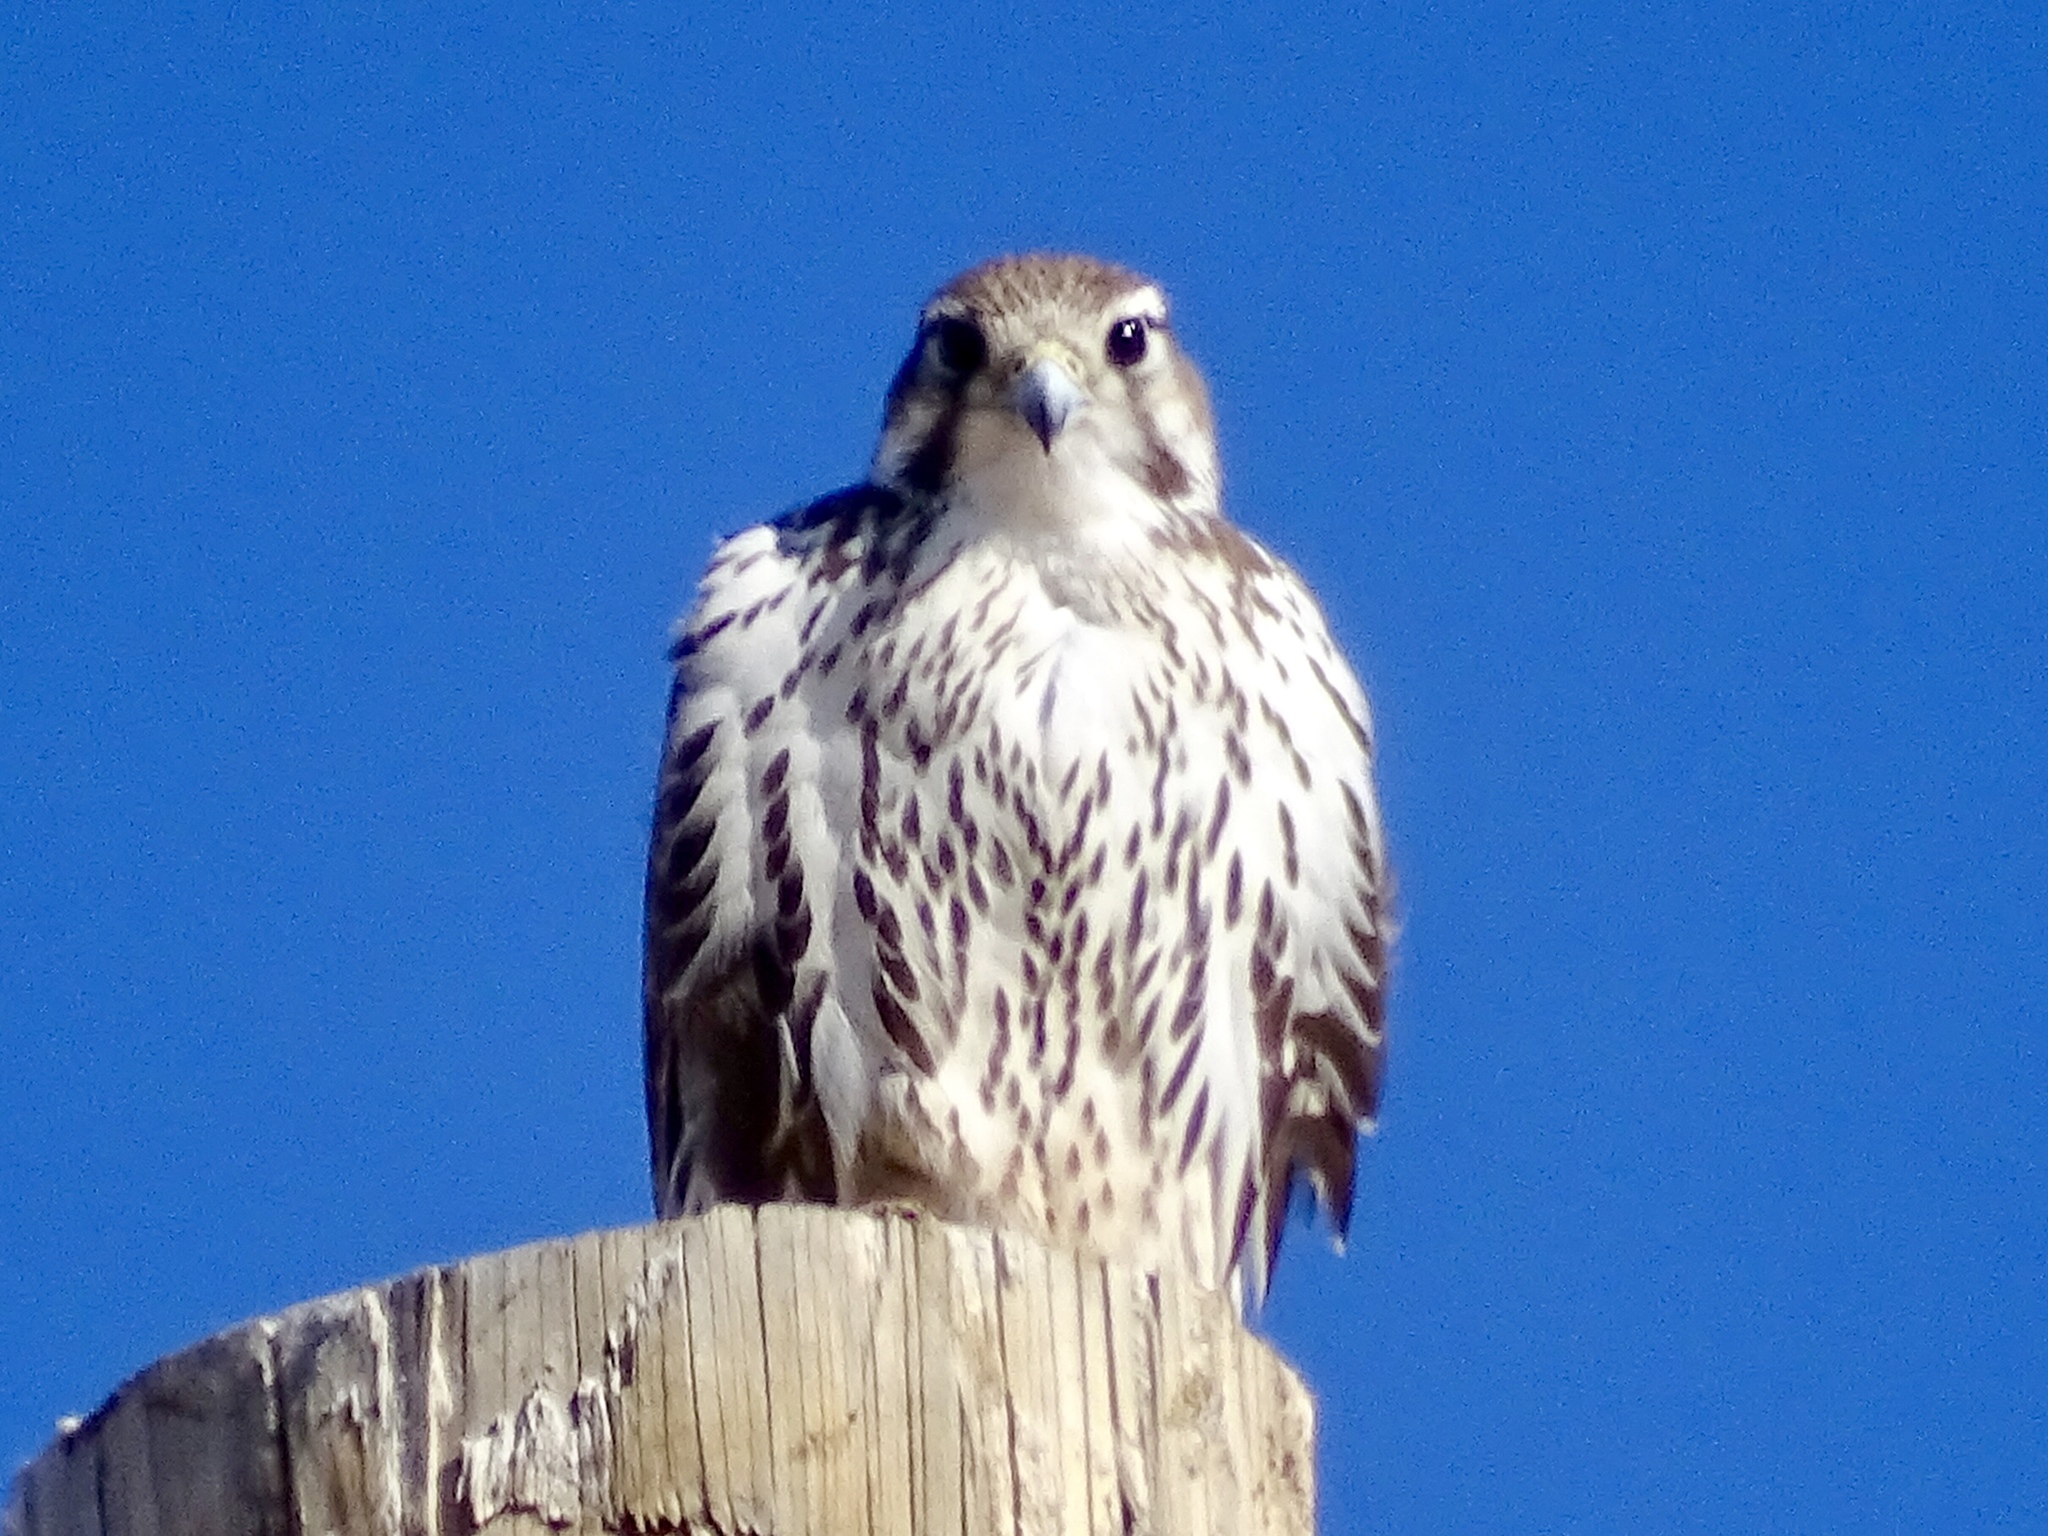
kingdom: Animalia
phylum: Chordata
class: Aves
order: Falconiformes
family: Falconidae
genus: Falco
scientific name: Falco mexicanus
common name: Prairie falcon
